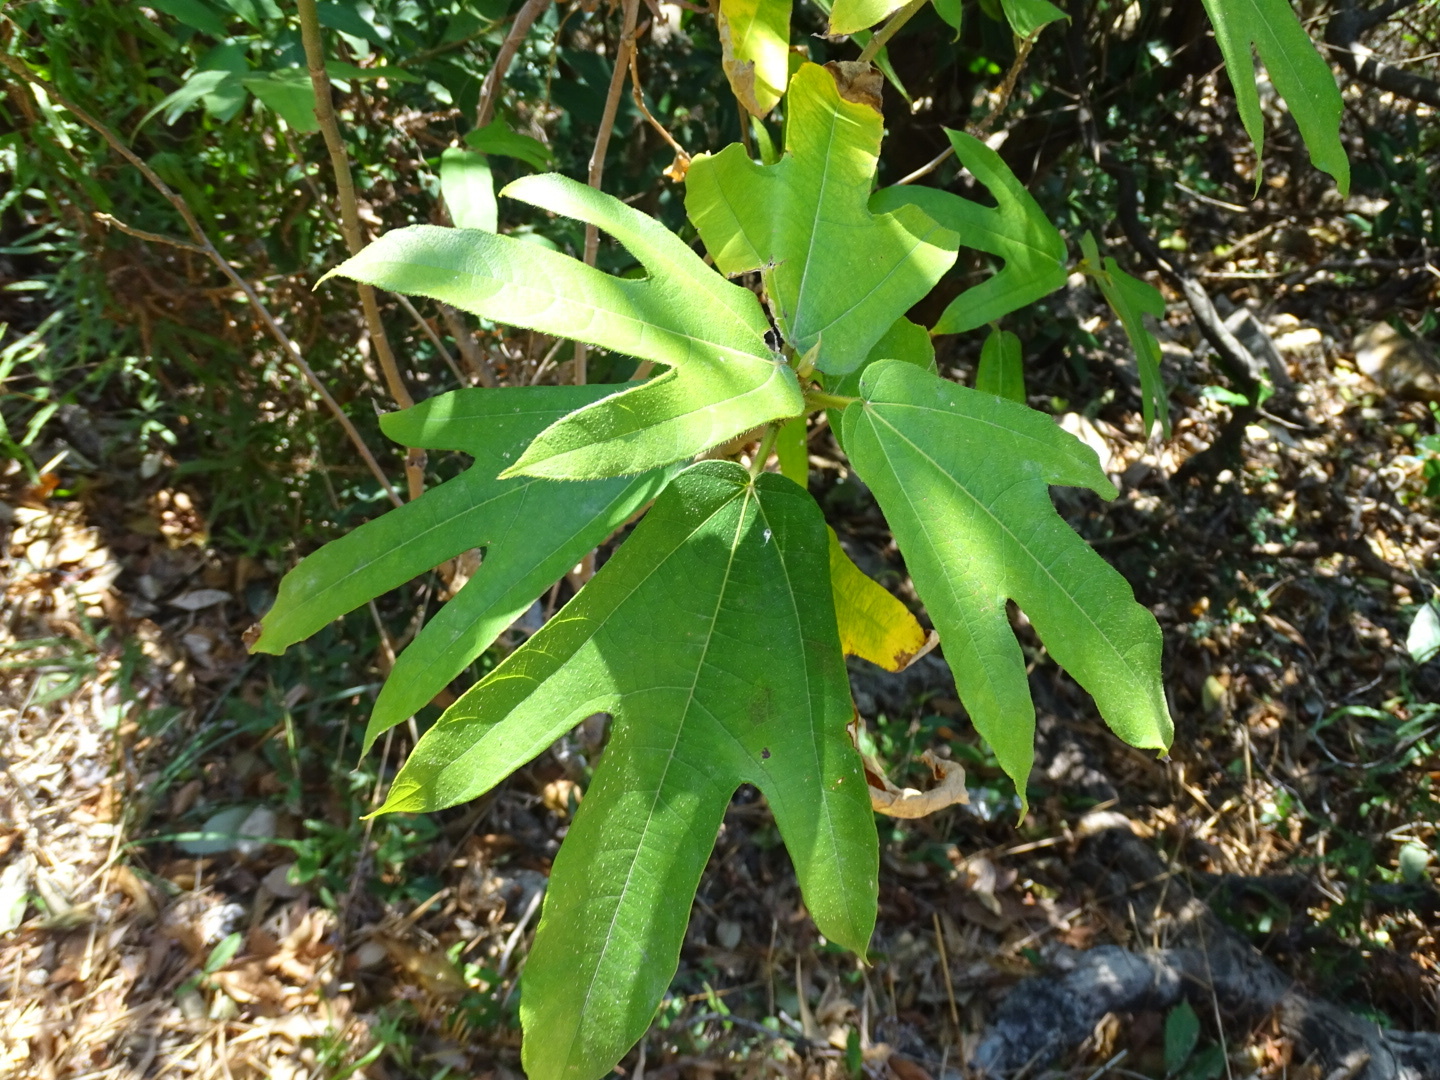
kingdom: Plantae
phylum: Tracheophyta
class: Magnoliopsida
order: Rosales
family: Moraceae
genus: Ficus
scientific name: Ficus simplicissima
